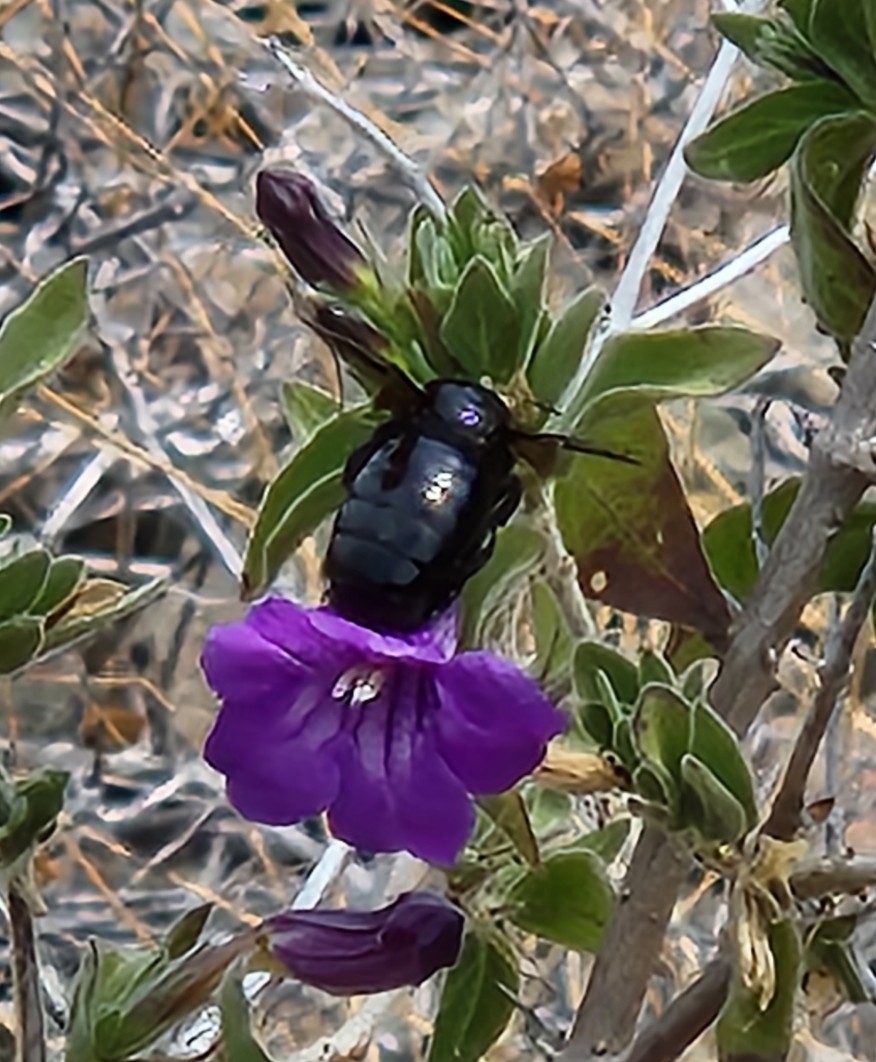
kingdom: Animalia
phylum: Arthropoda
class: Insecta
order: Hymenoptera
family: Apidae
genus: Xylocopa
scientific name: Xylocopa californica
